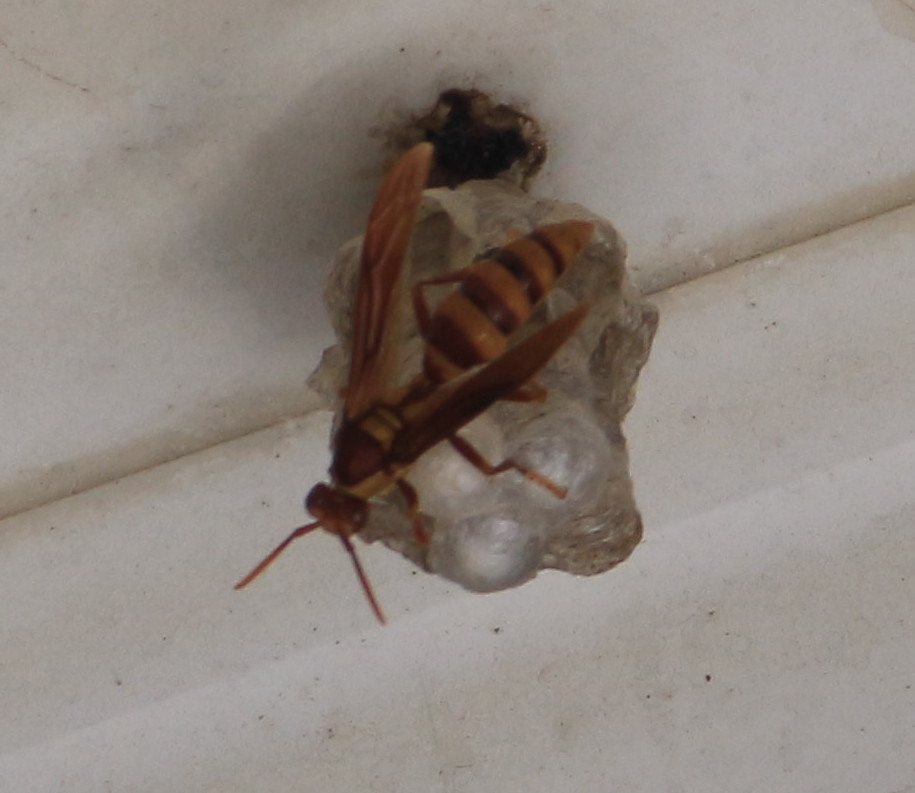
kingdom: Animalia
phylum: Arthropoda
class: Insecta
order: Hymenoptera
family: Eumenidae
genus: Polistes
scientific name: Polistes carnifex
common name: Paper wasp
